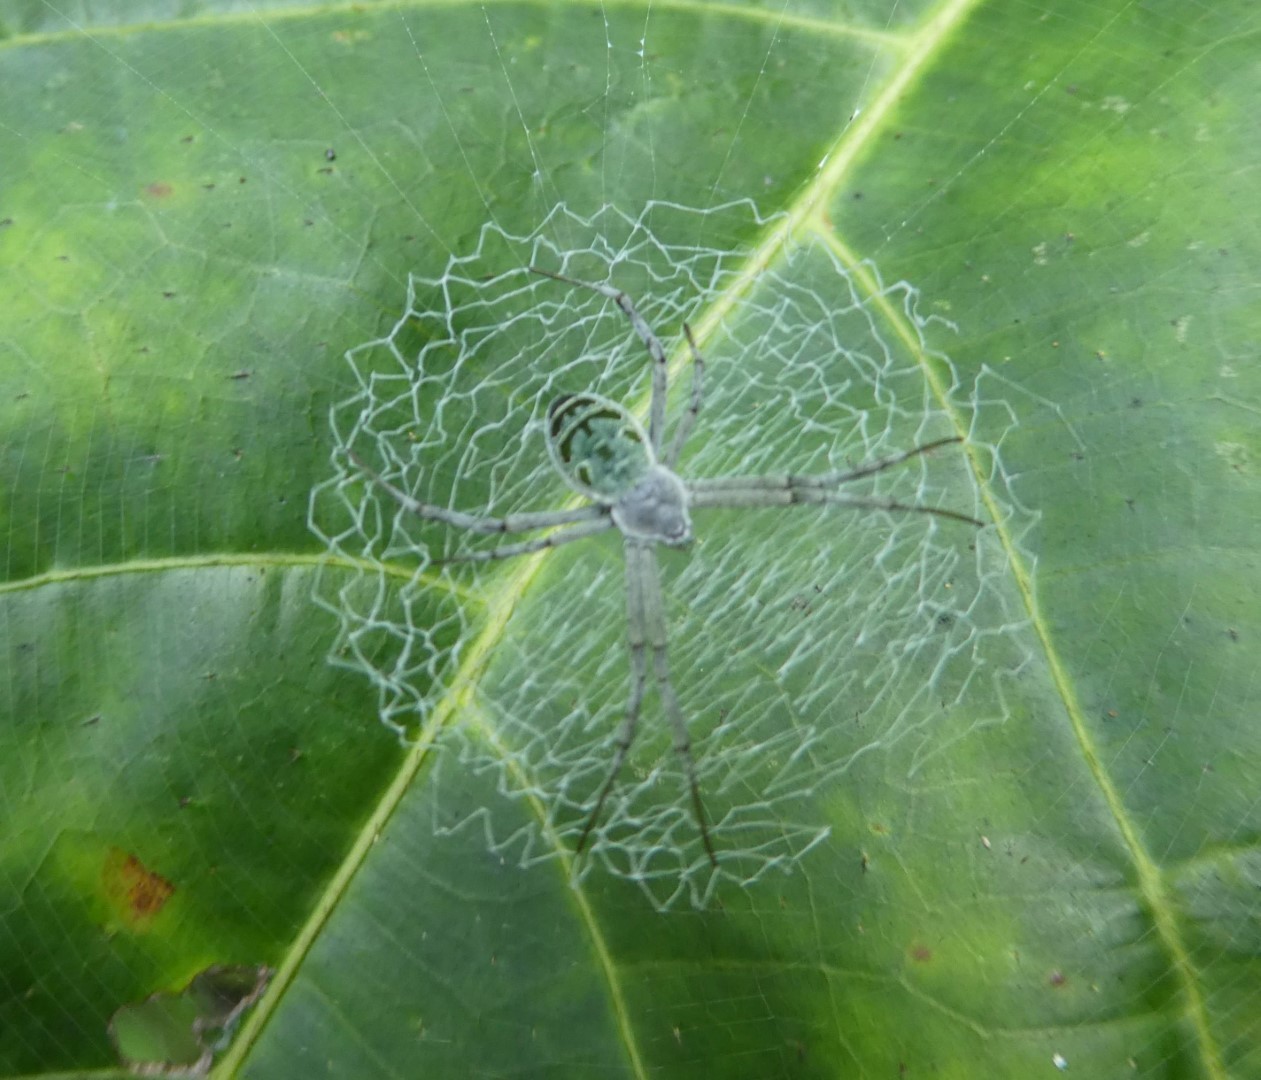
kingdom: Animalia
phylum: Arthropoda
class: Arachnida
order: Araneae
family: Araneidae
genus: Argiope
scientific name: Argiope chloreides
